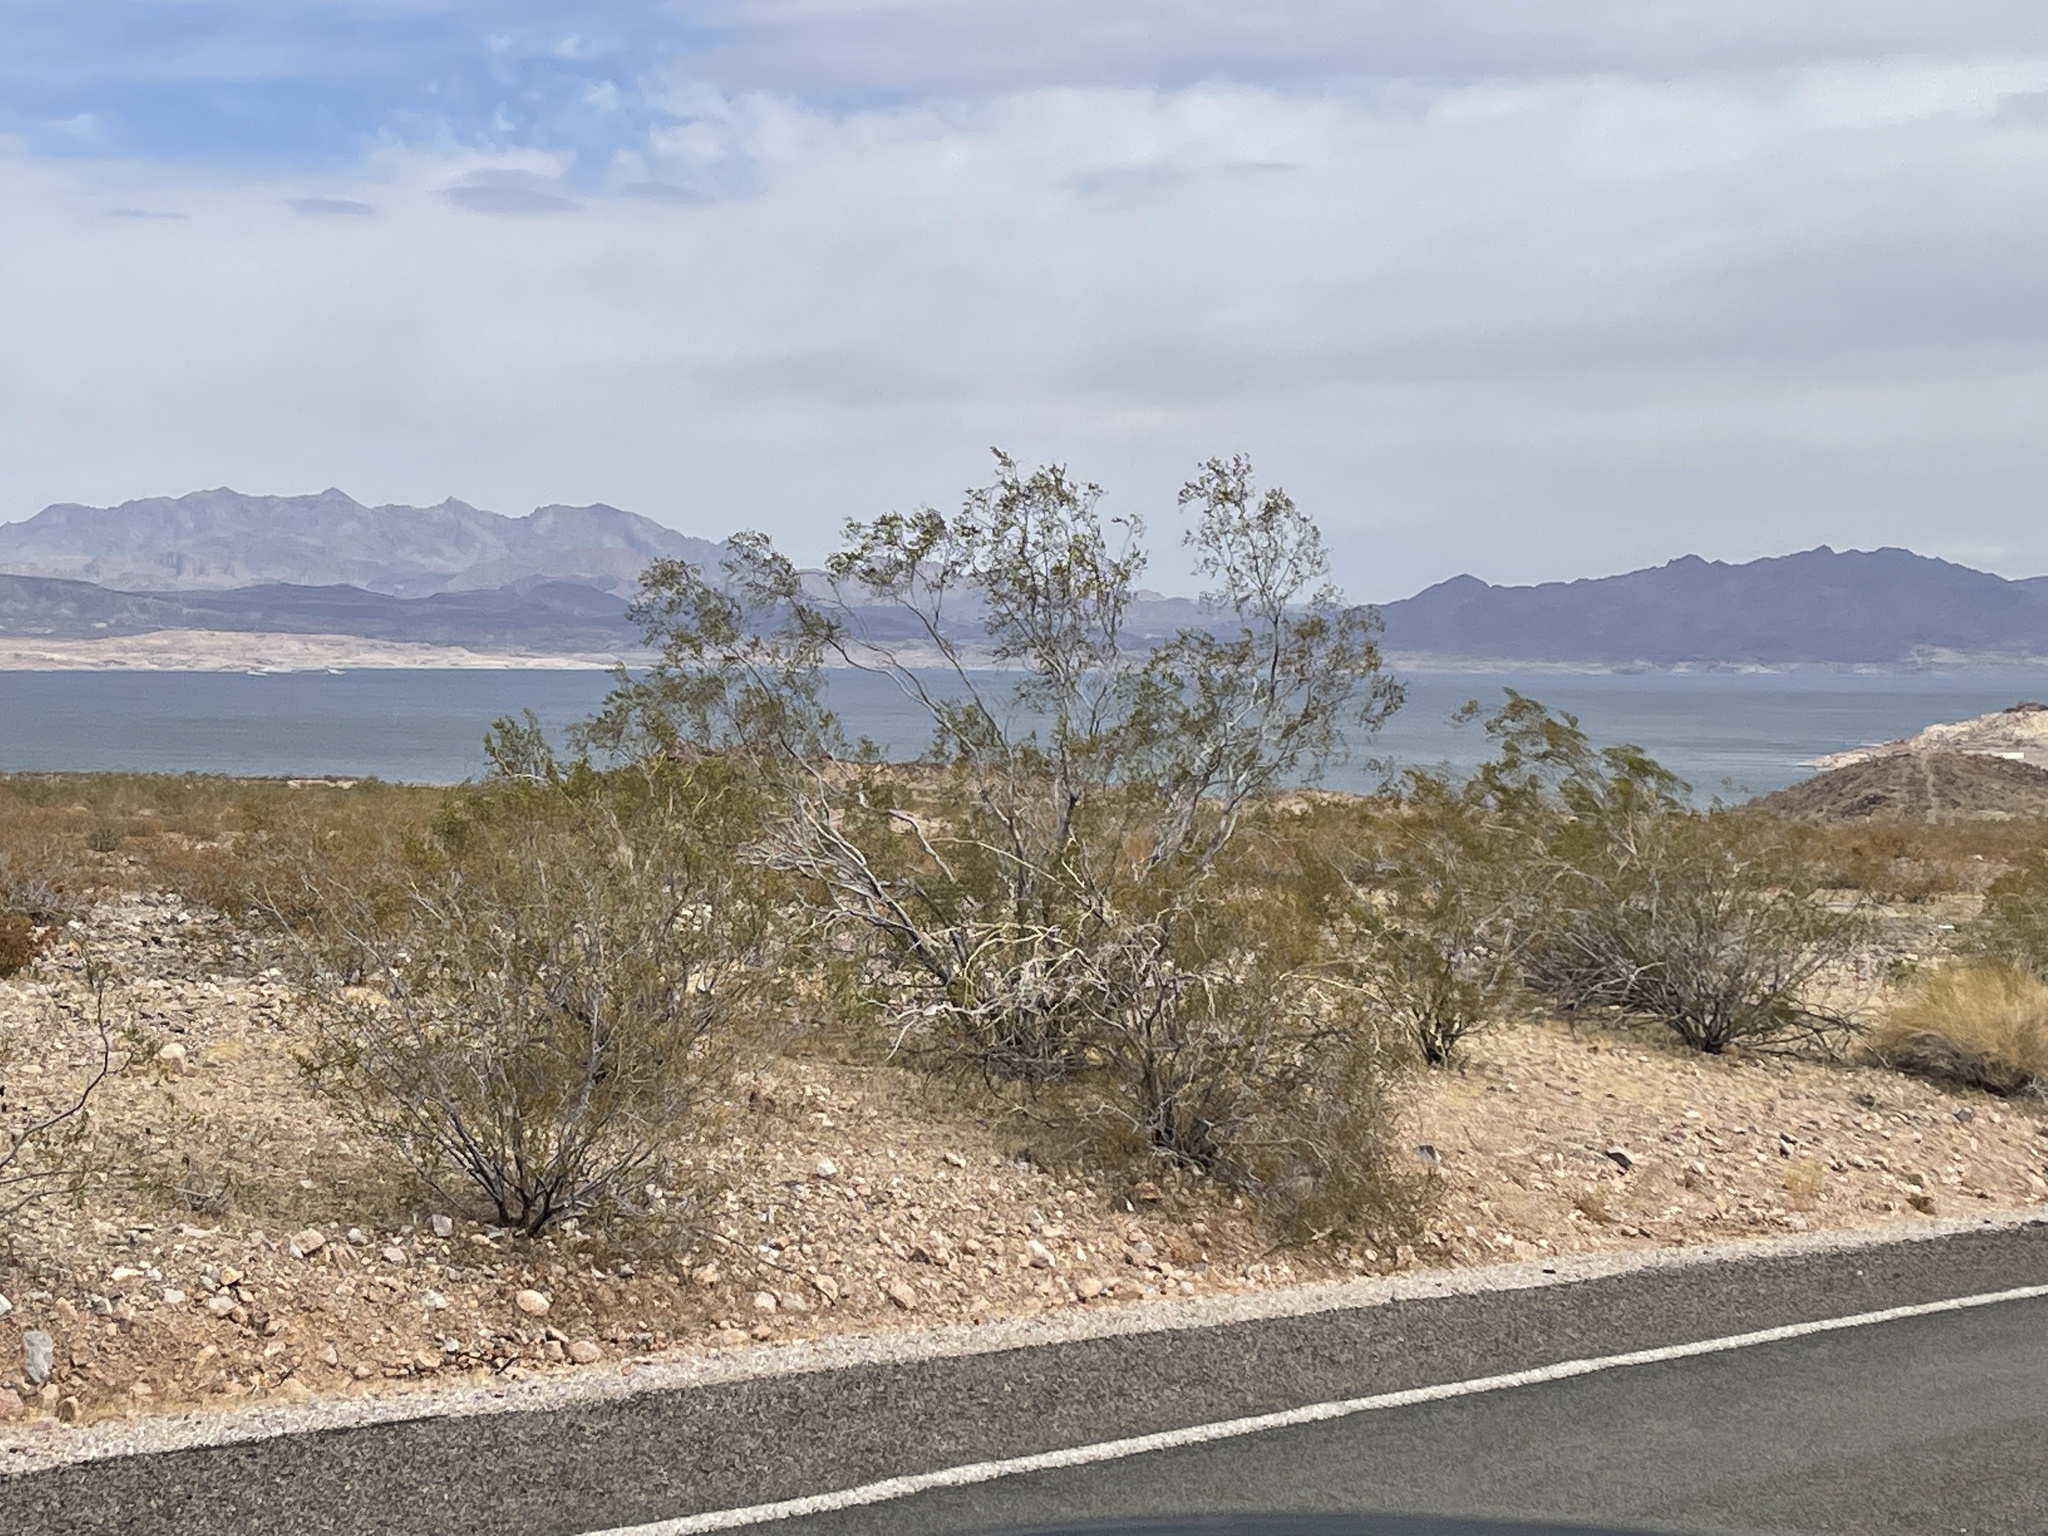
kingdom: Plantae
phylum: Tracheophyta
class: Magnoliopsida
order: Zygophyllales
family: Zygophyllaceae
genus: Larrea
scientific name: Larrea tridentata
